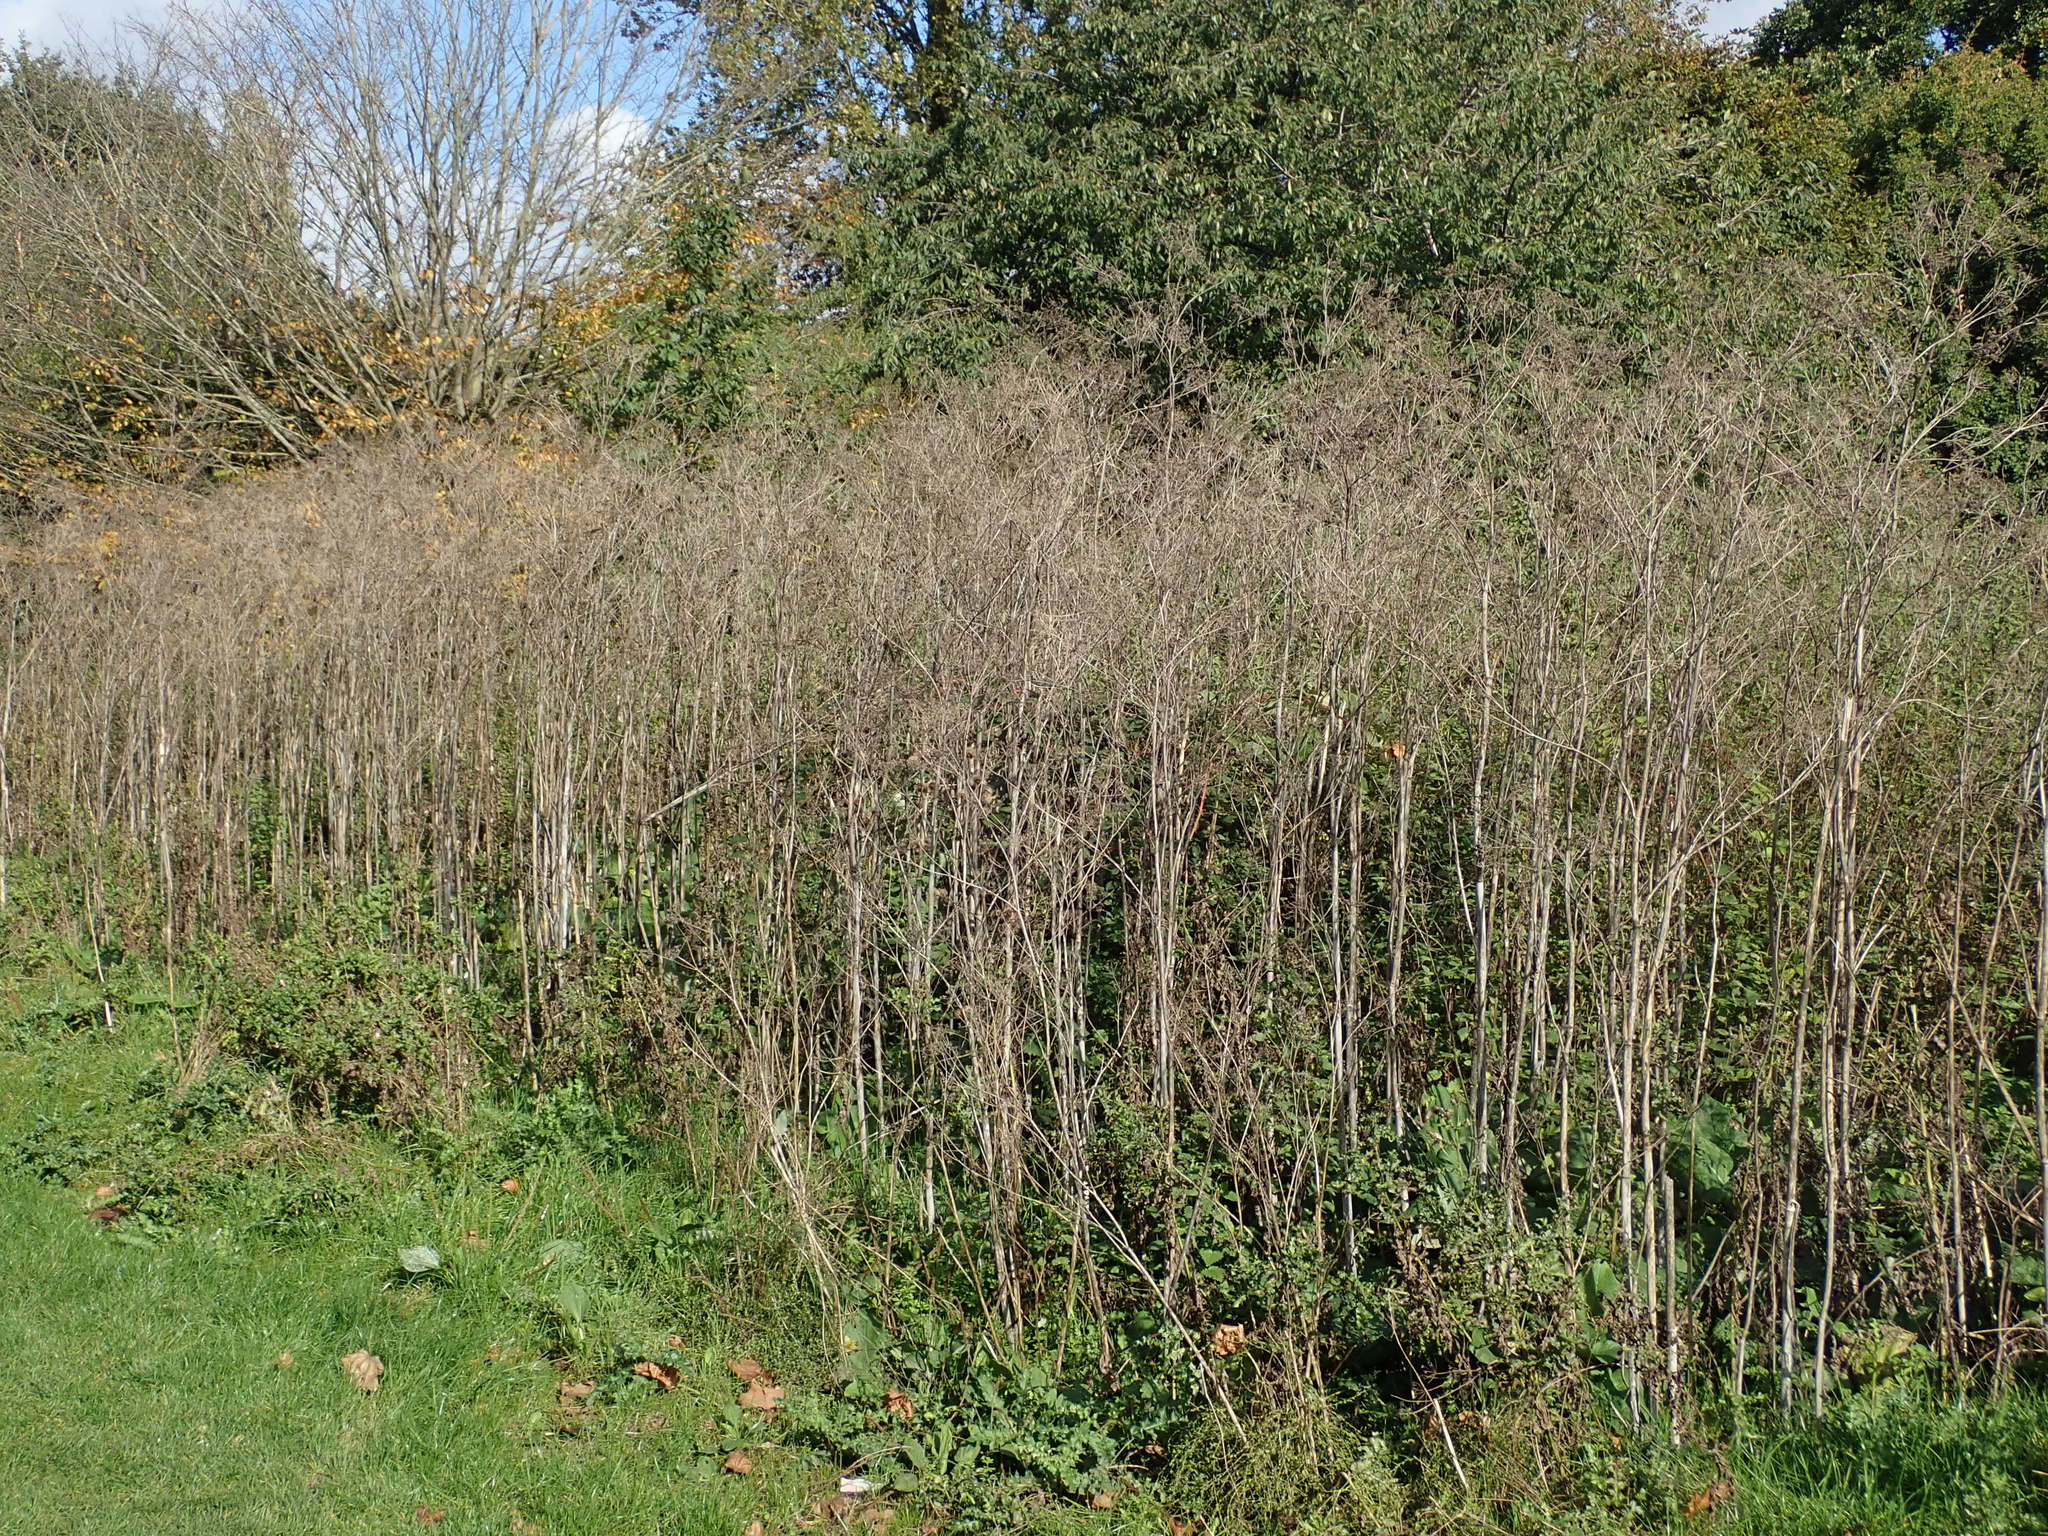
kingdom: Plantae
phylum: Tracheophyta
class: Magnoliopsida
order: Apiales
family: Apiaceae
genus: Conium
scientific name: Conium maculatum
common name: Hemlock
